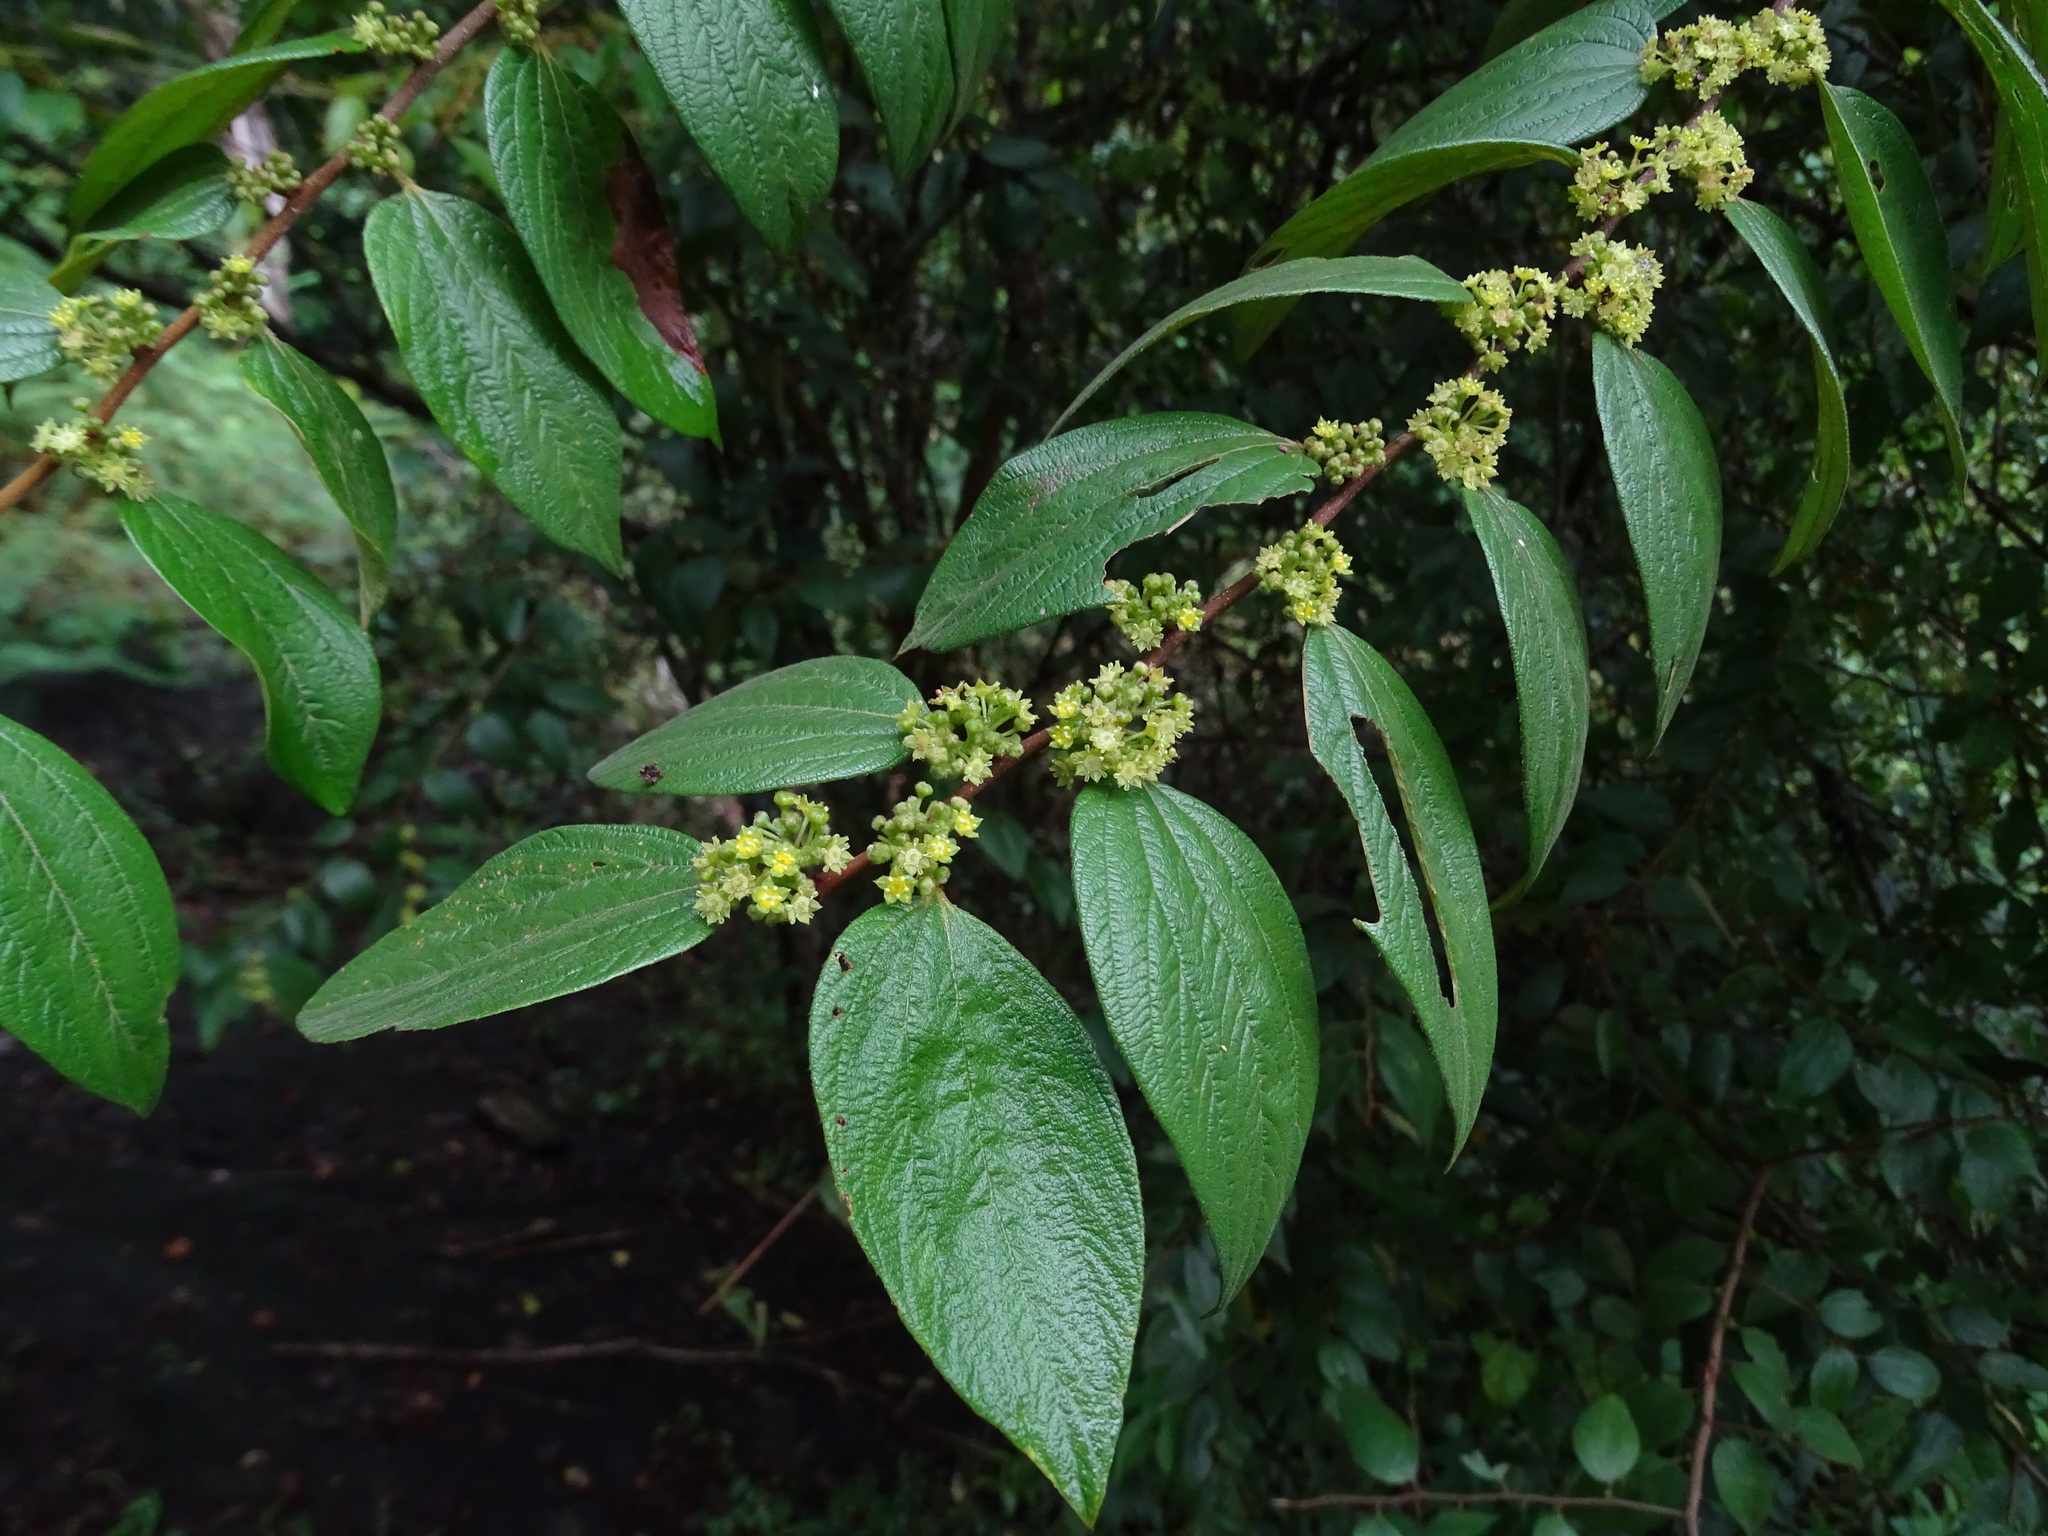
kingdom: Plantae
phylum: Tracheophyta
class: Magnoliopsida
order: Rosales
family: Rhamnaceae
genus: Ziziphus
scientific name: Ziziphus oenopolia
